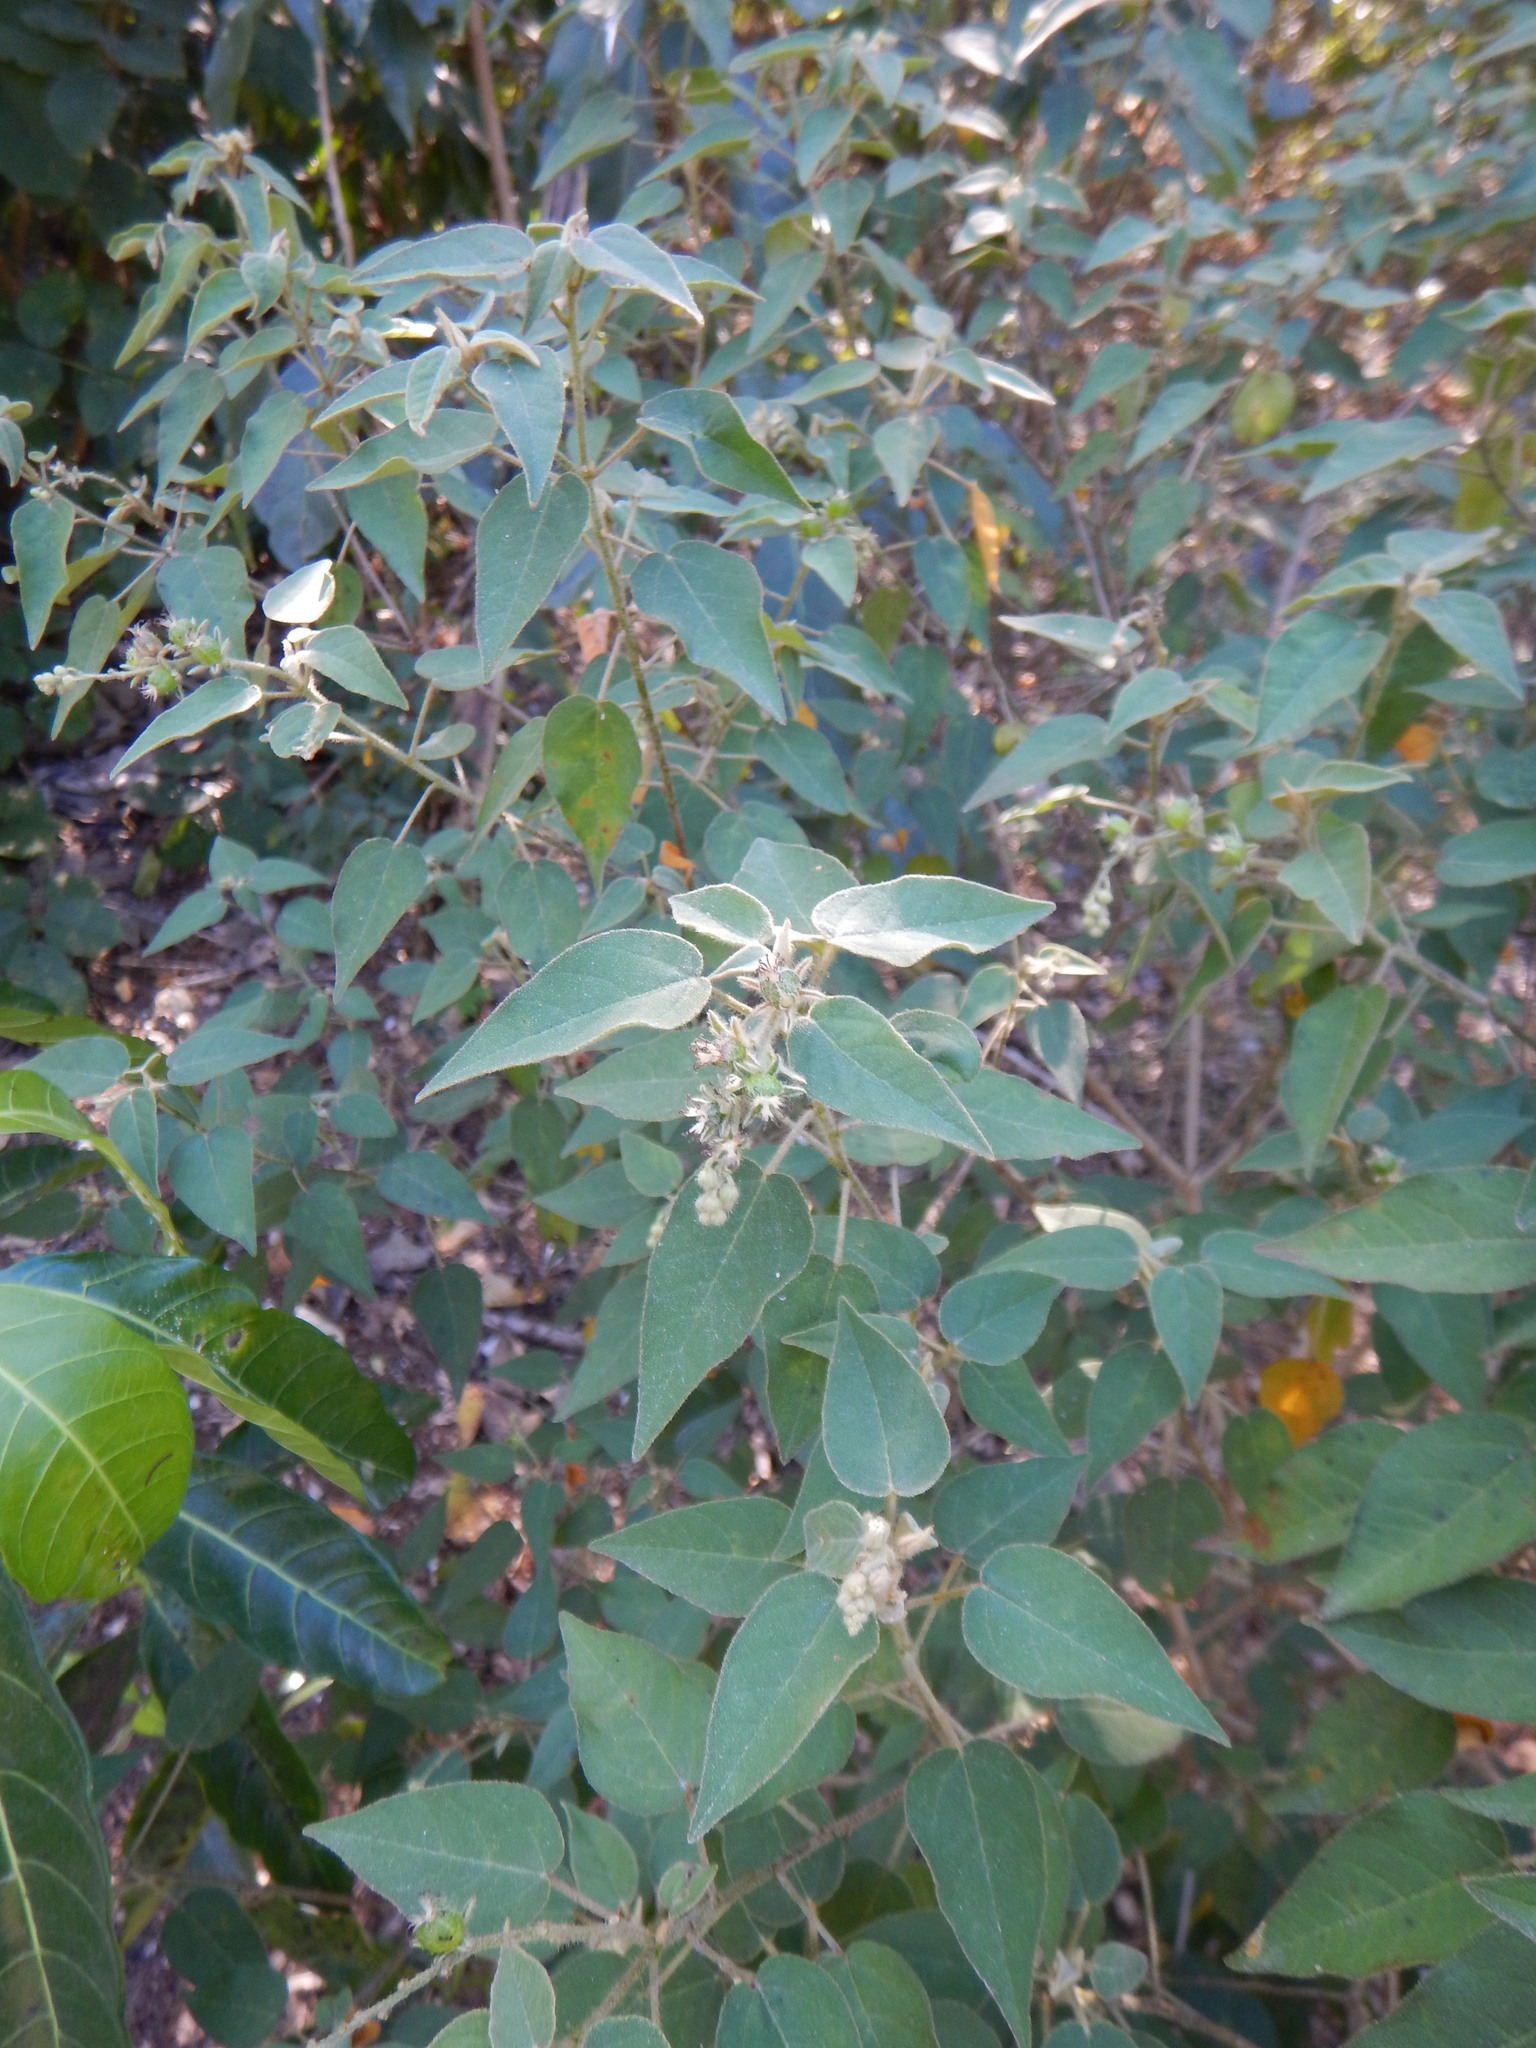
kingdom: Plantae
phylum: Tracheophyta
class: Magnoliopsida
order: Malpighiales
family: Euphorbiaceae
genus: Croton
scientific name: Croton humilis
